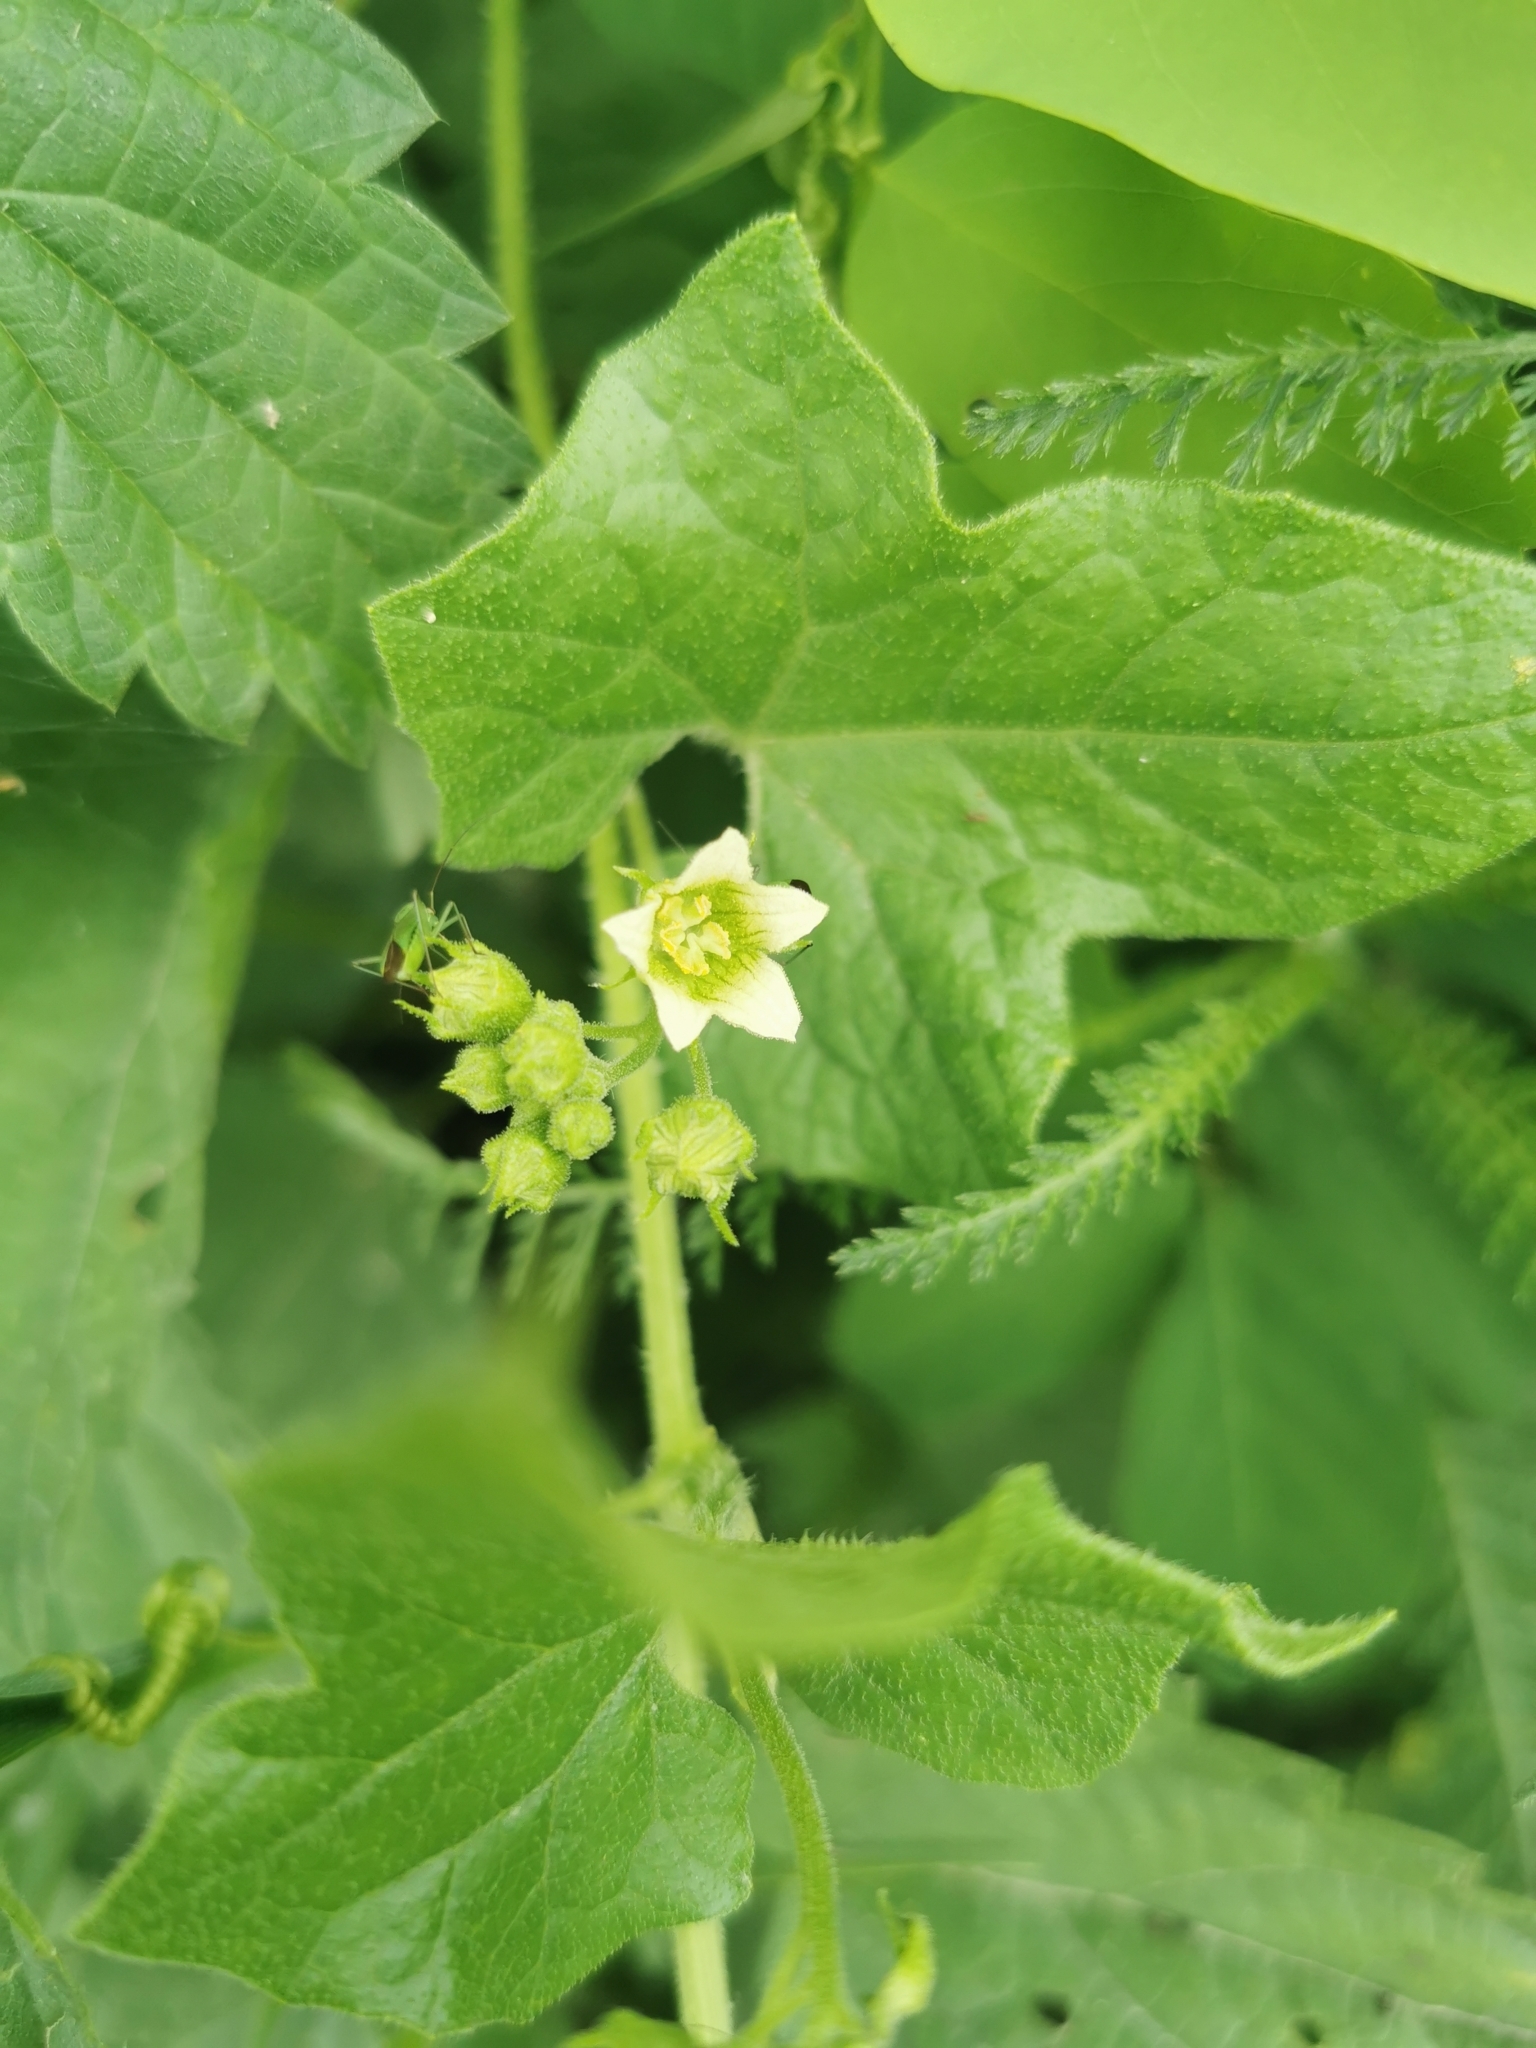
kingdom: Plantae
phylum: Tracheophyta
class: Magnoliopsida
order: Cucurbitales
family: Cucurbitaceae
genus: Bryonia
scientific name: Bryonia dioica
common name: White bryony
